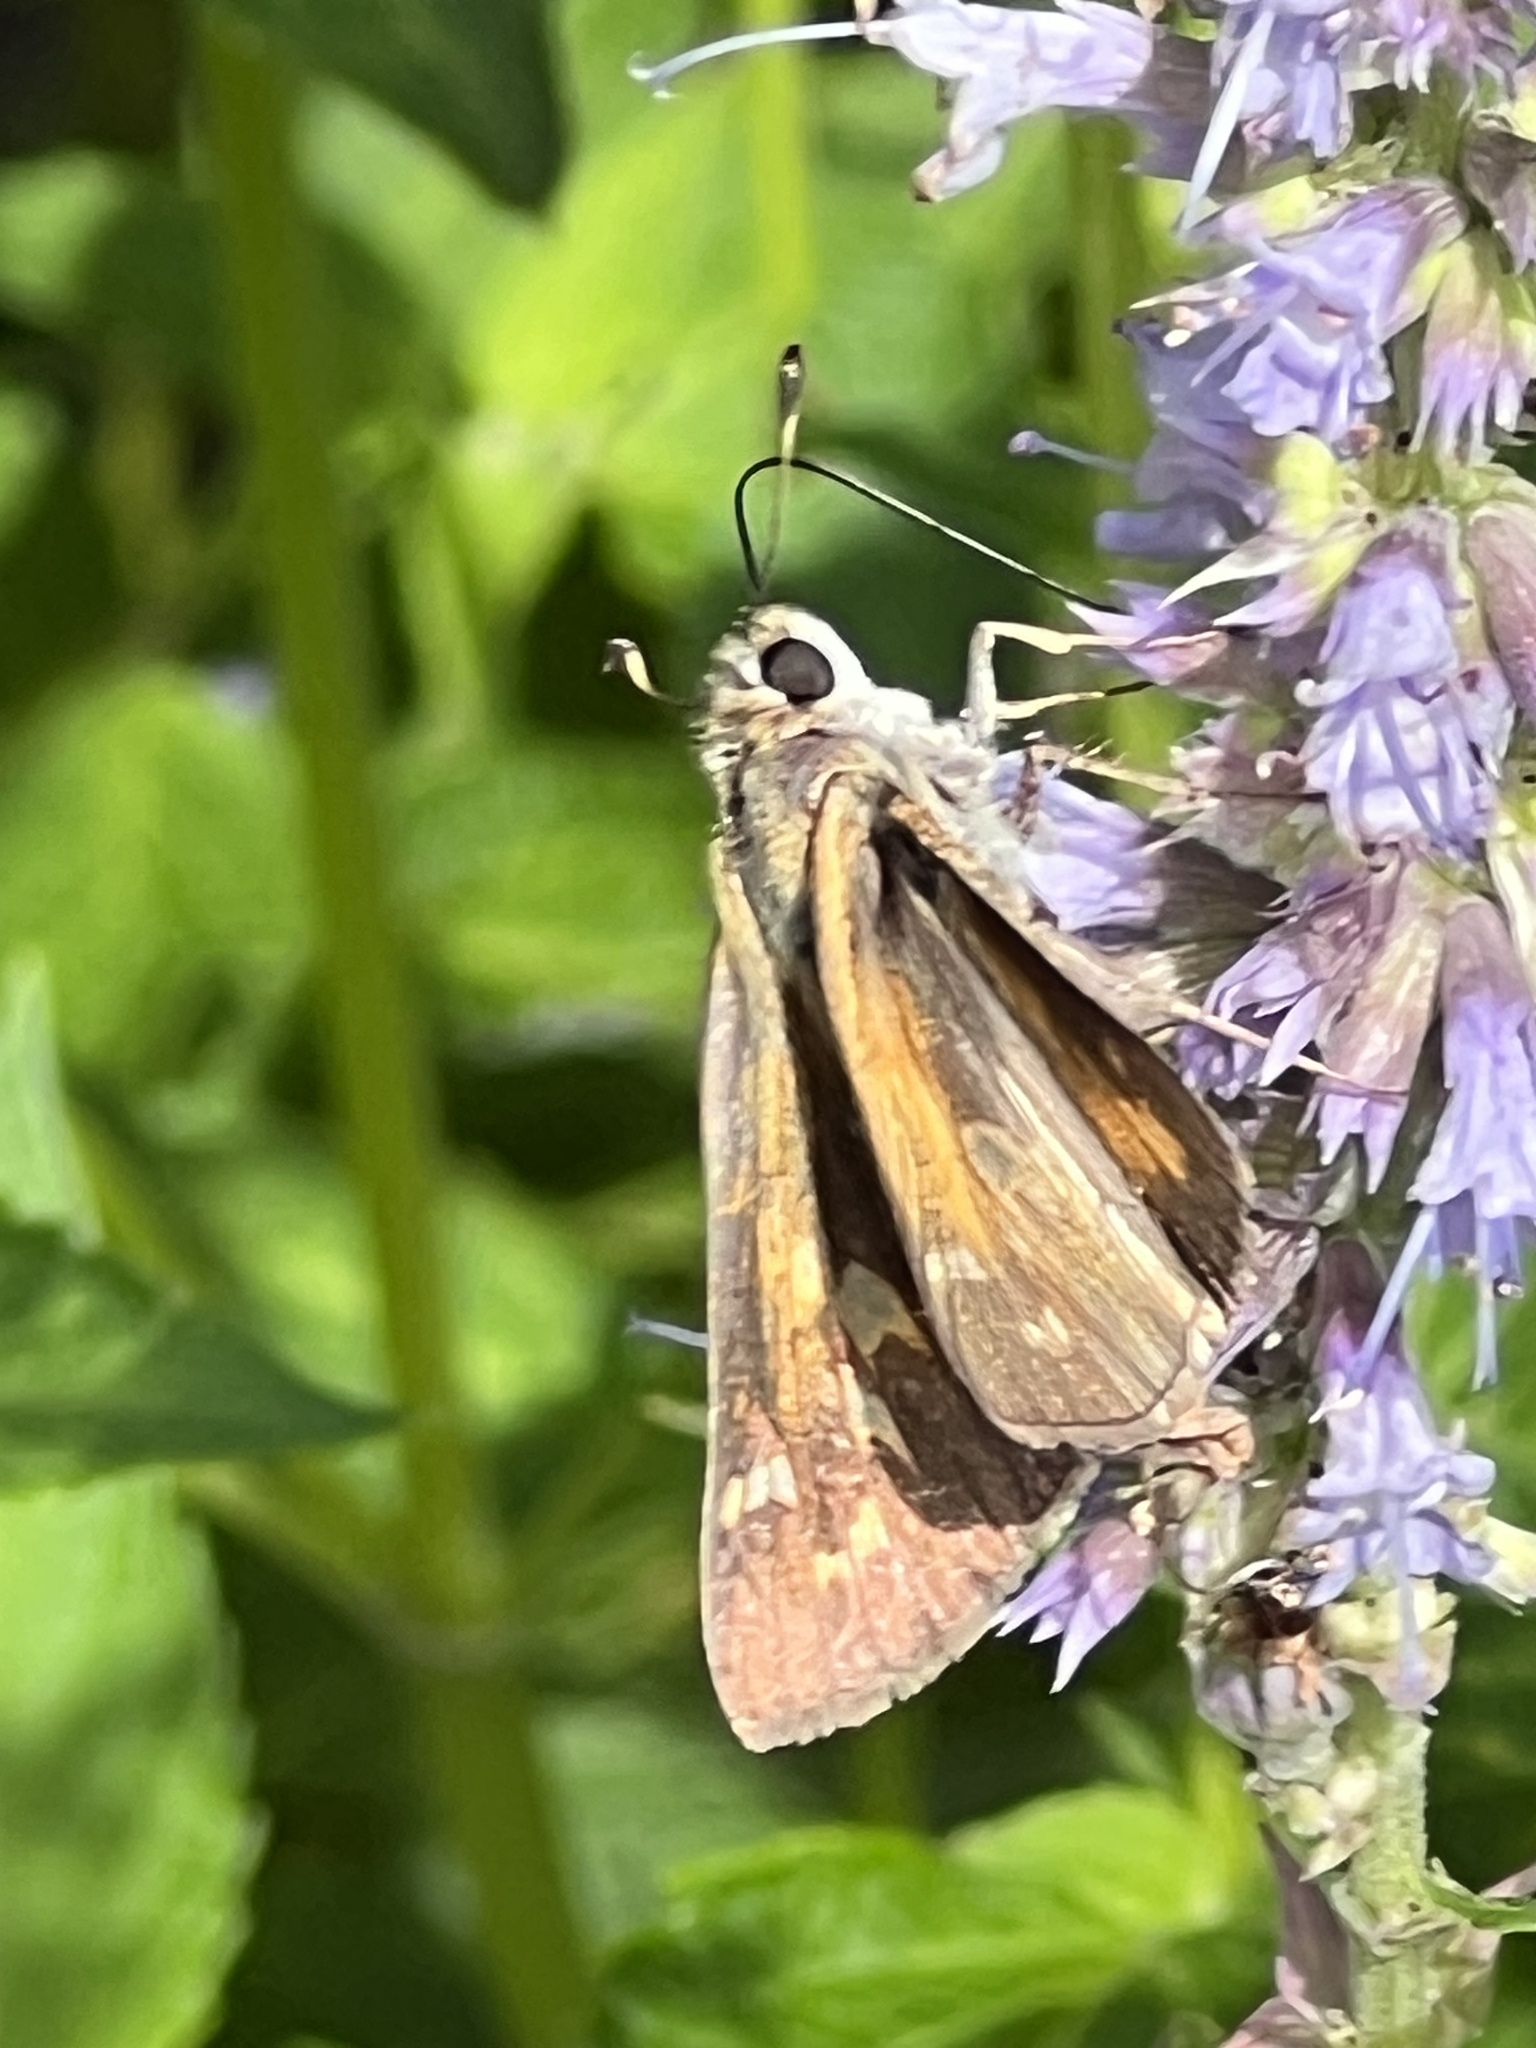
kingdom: Animalia
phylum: Arthropoda
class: Insecta
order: Lepidoptera
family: Hesperiidae
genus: Atalopedes
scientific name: Atalopedes
